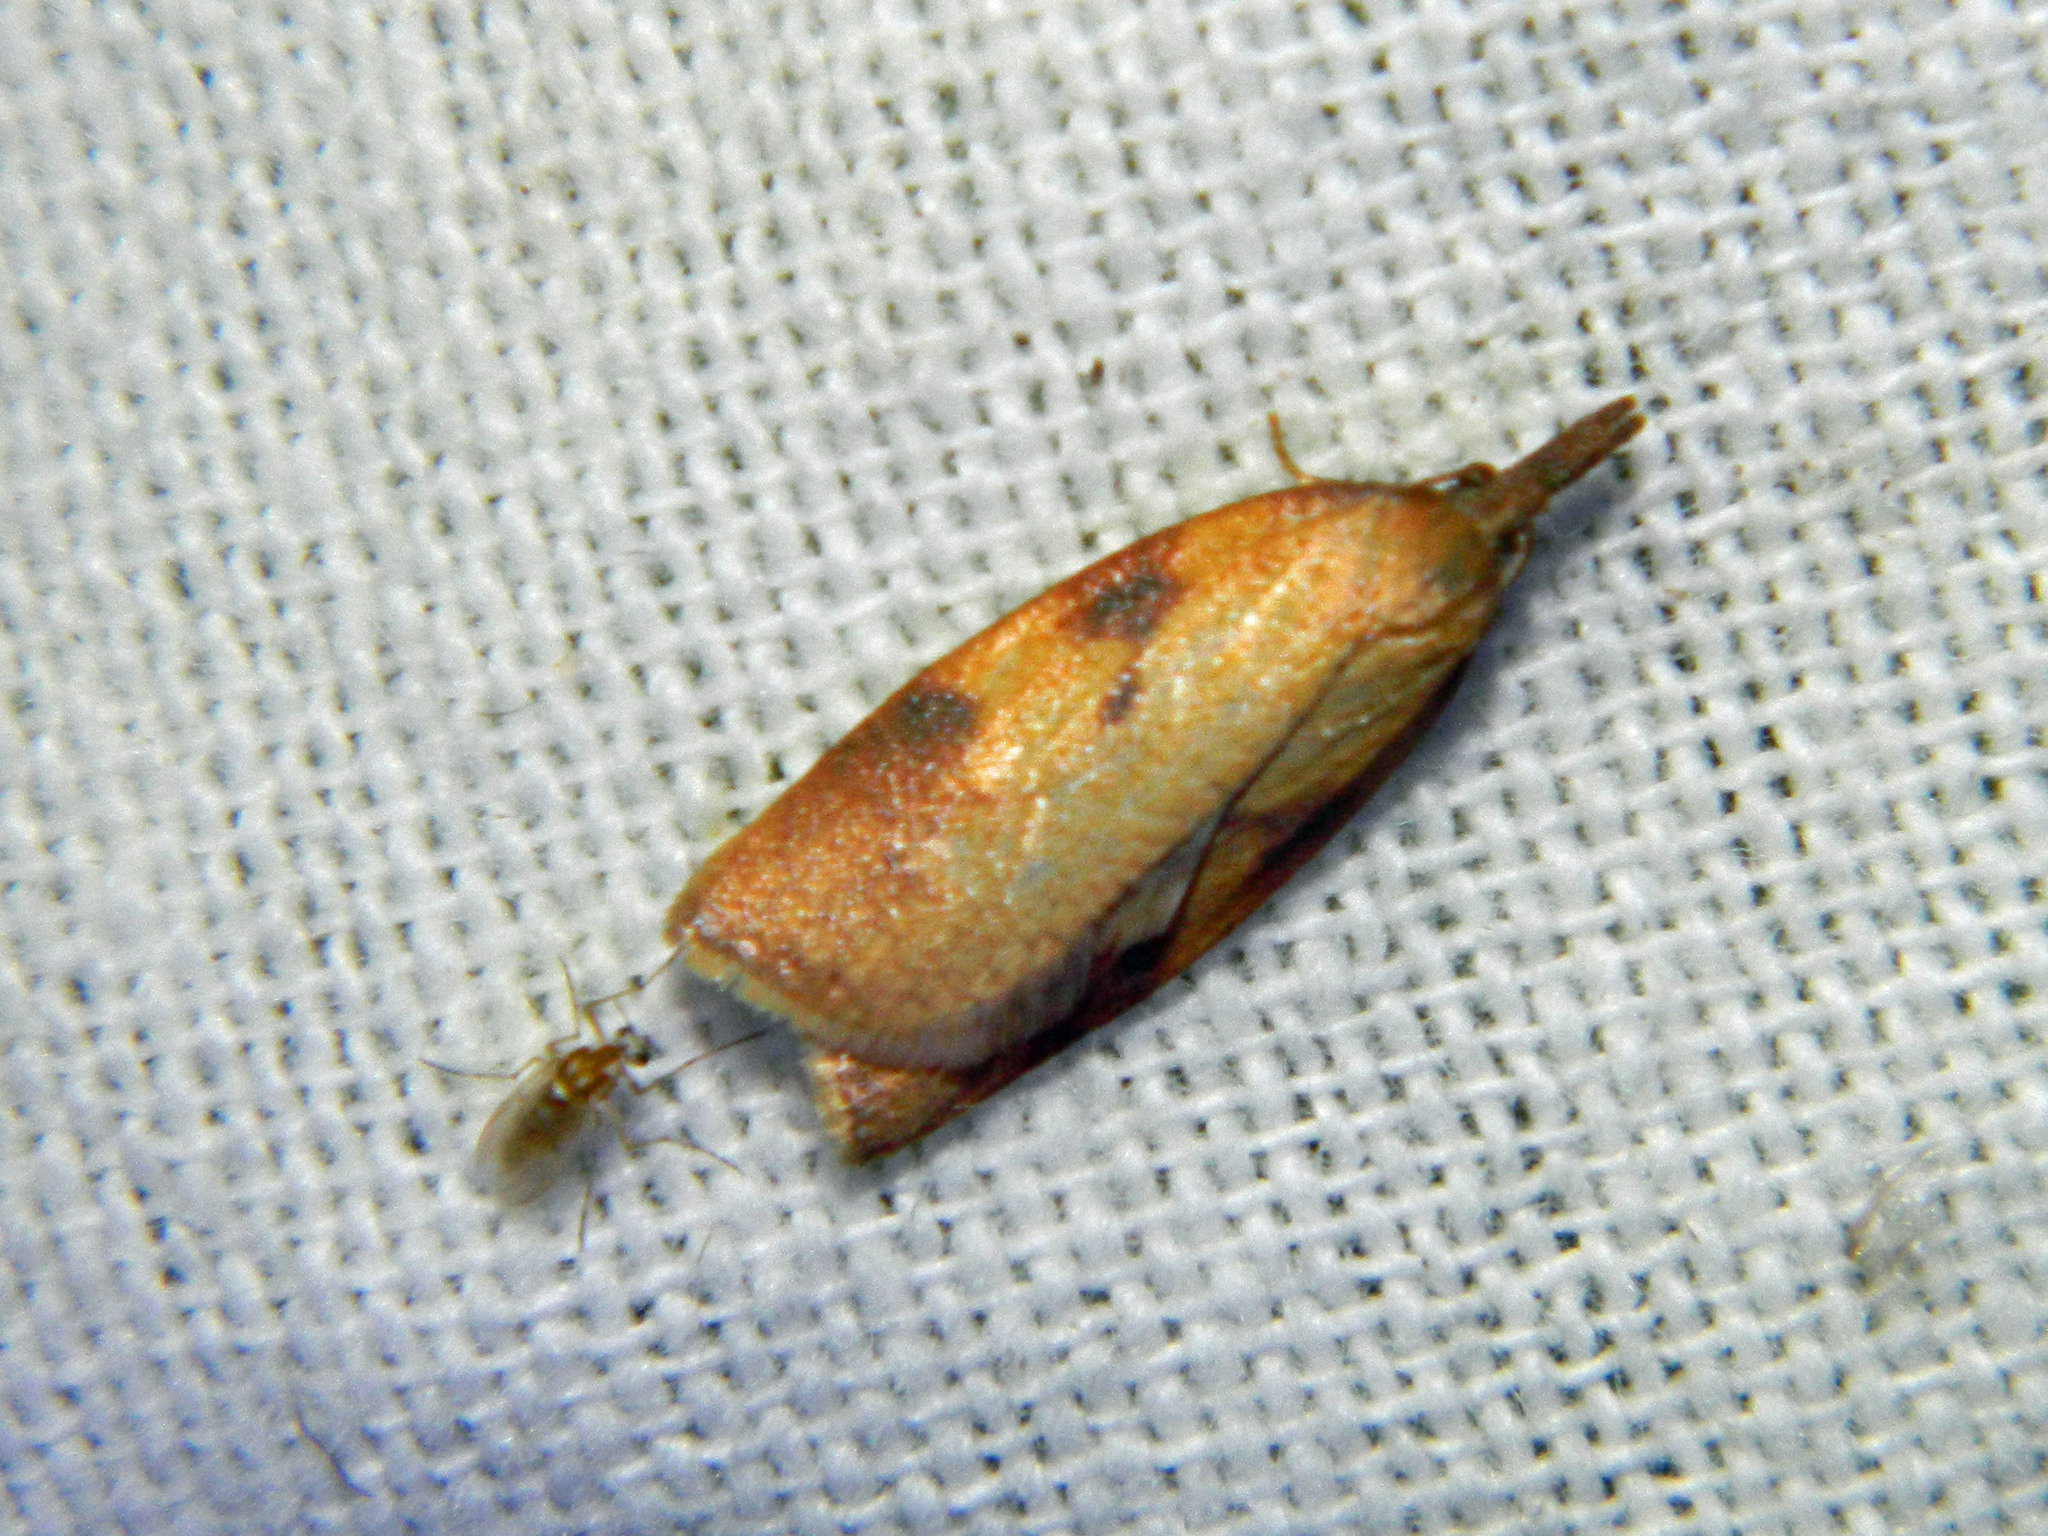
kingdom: Animalia
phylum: Arthropoda
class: Insecta
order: Lepidoptera
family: Tortricidae
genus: Sparganothis
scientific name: Sparganothis boweri
